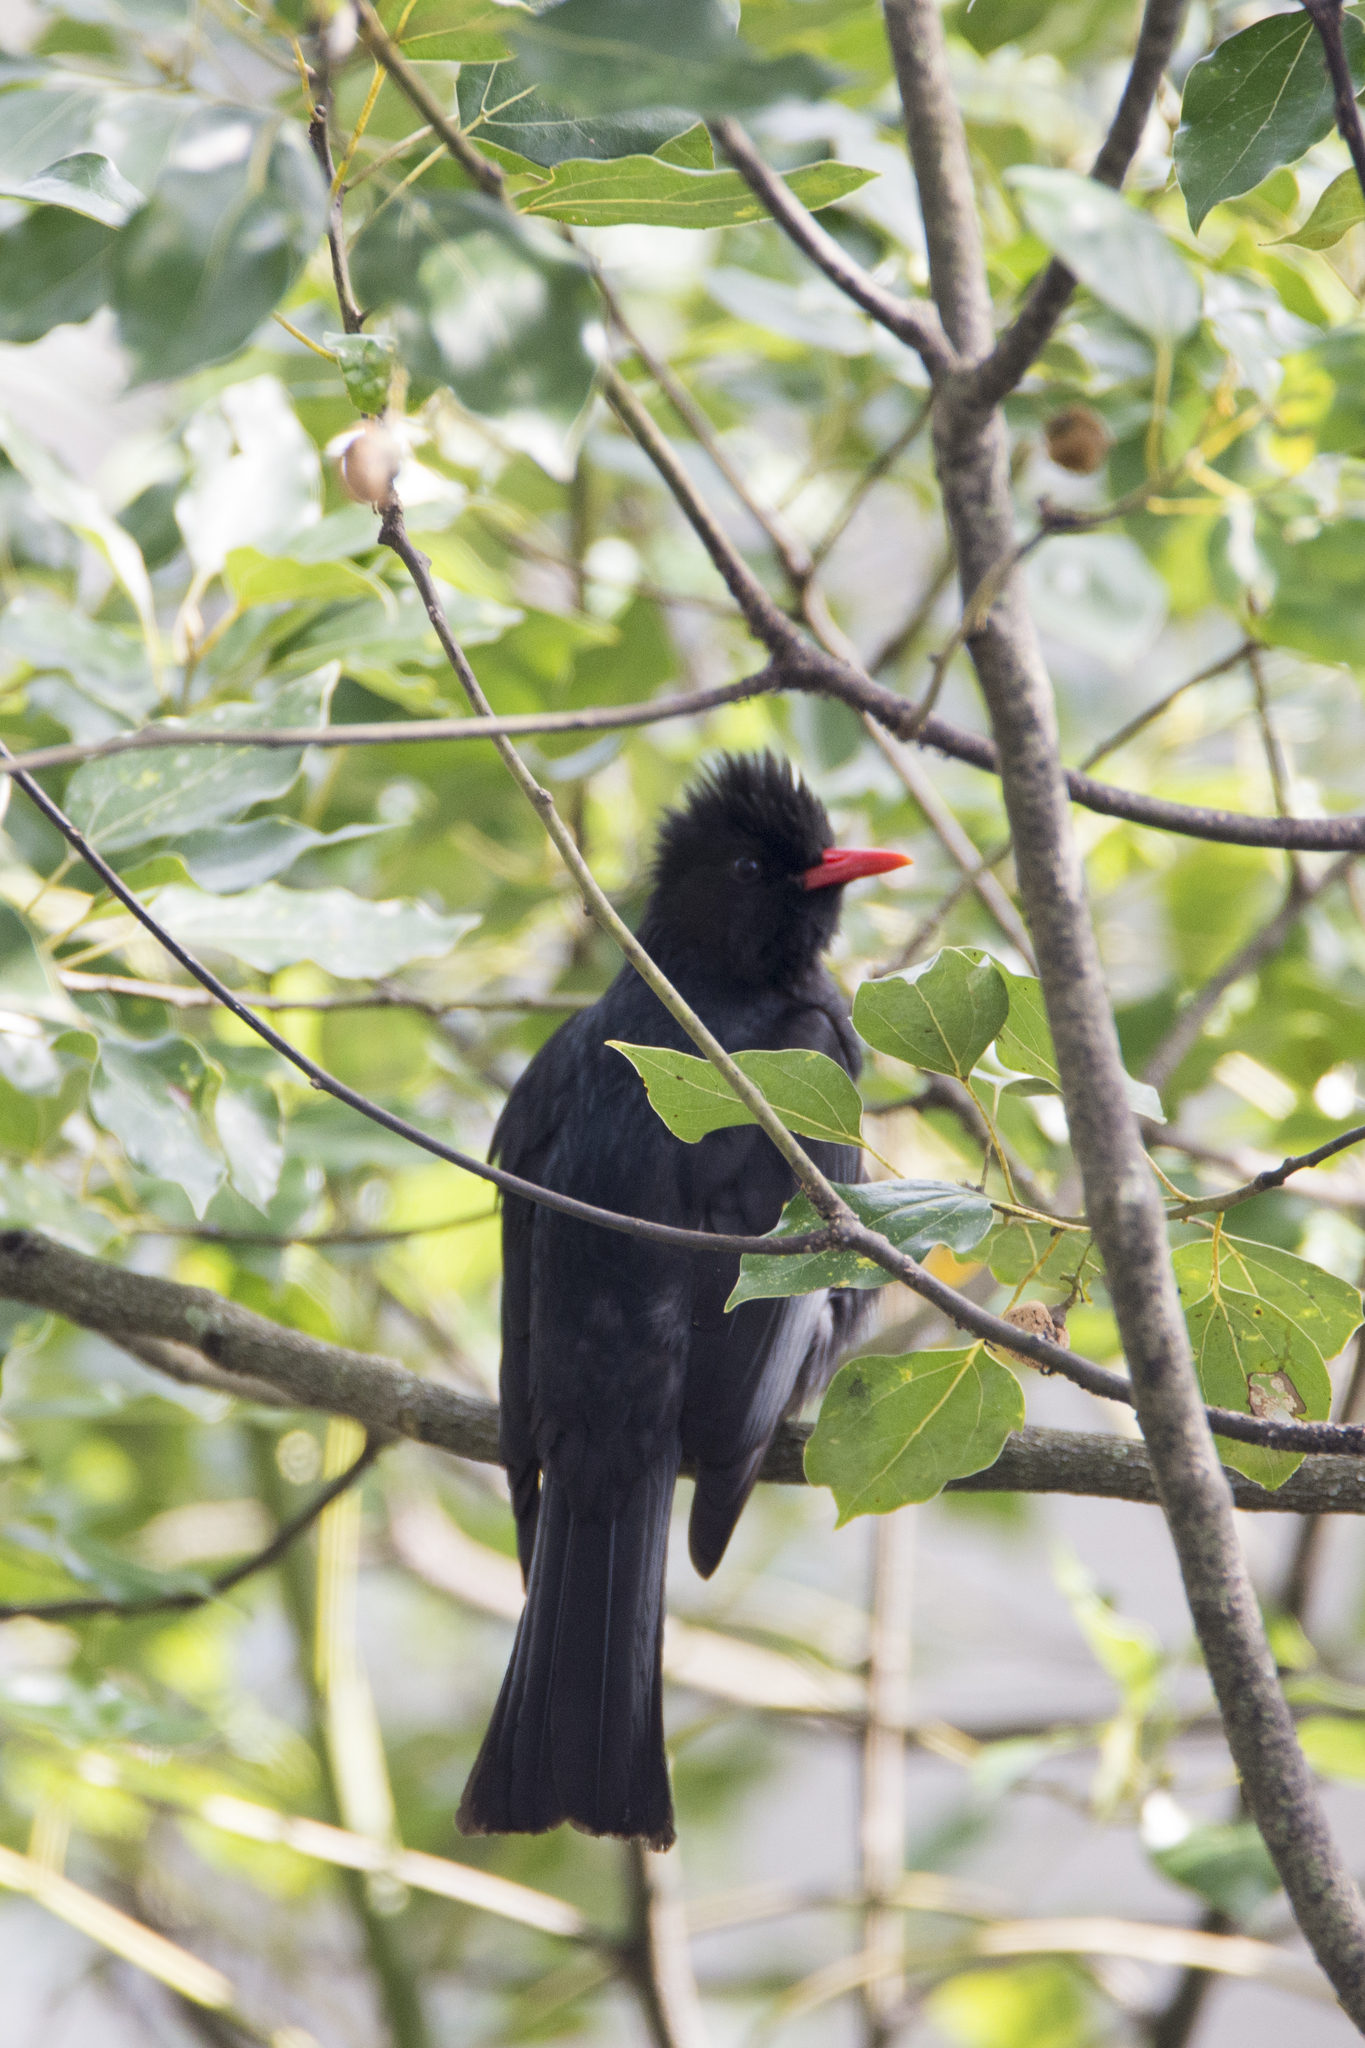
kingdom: Animalia
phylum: Chordata
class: Aves
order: Passeriformes
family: Pycnonotidae
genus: Hypsipetes
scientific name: Hypsipetes leucocephalus
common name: Black bulbul
